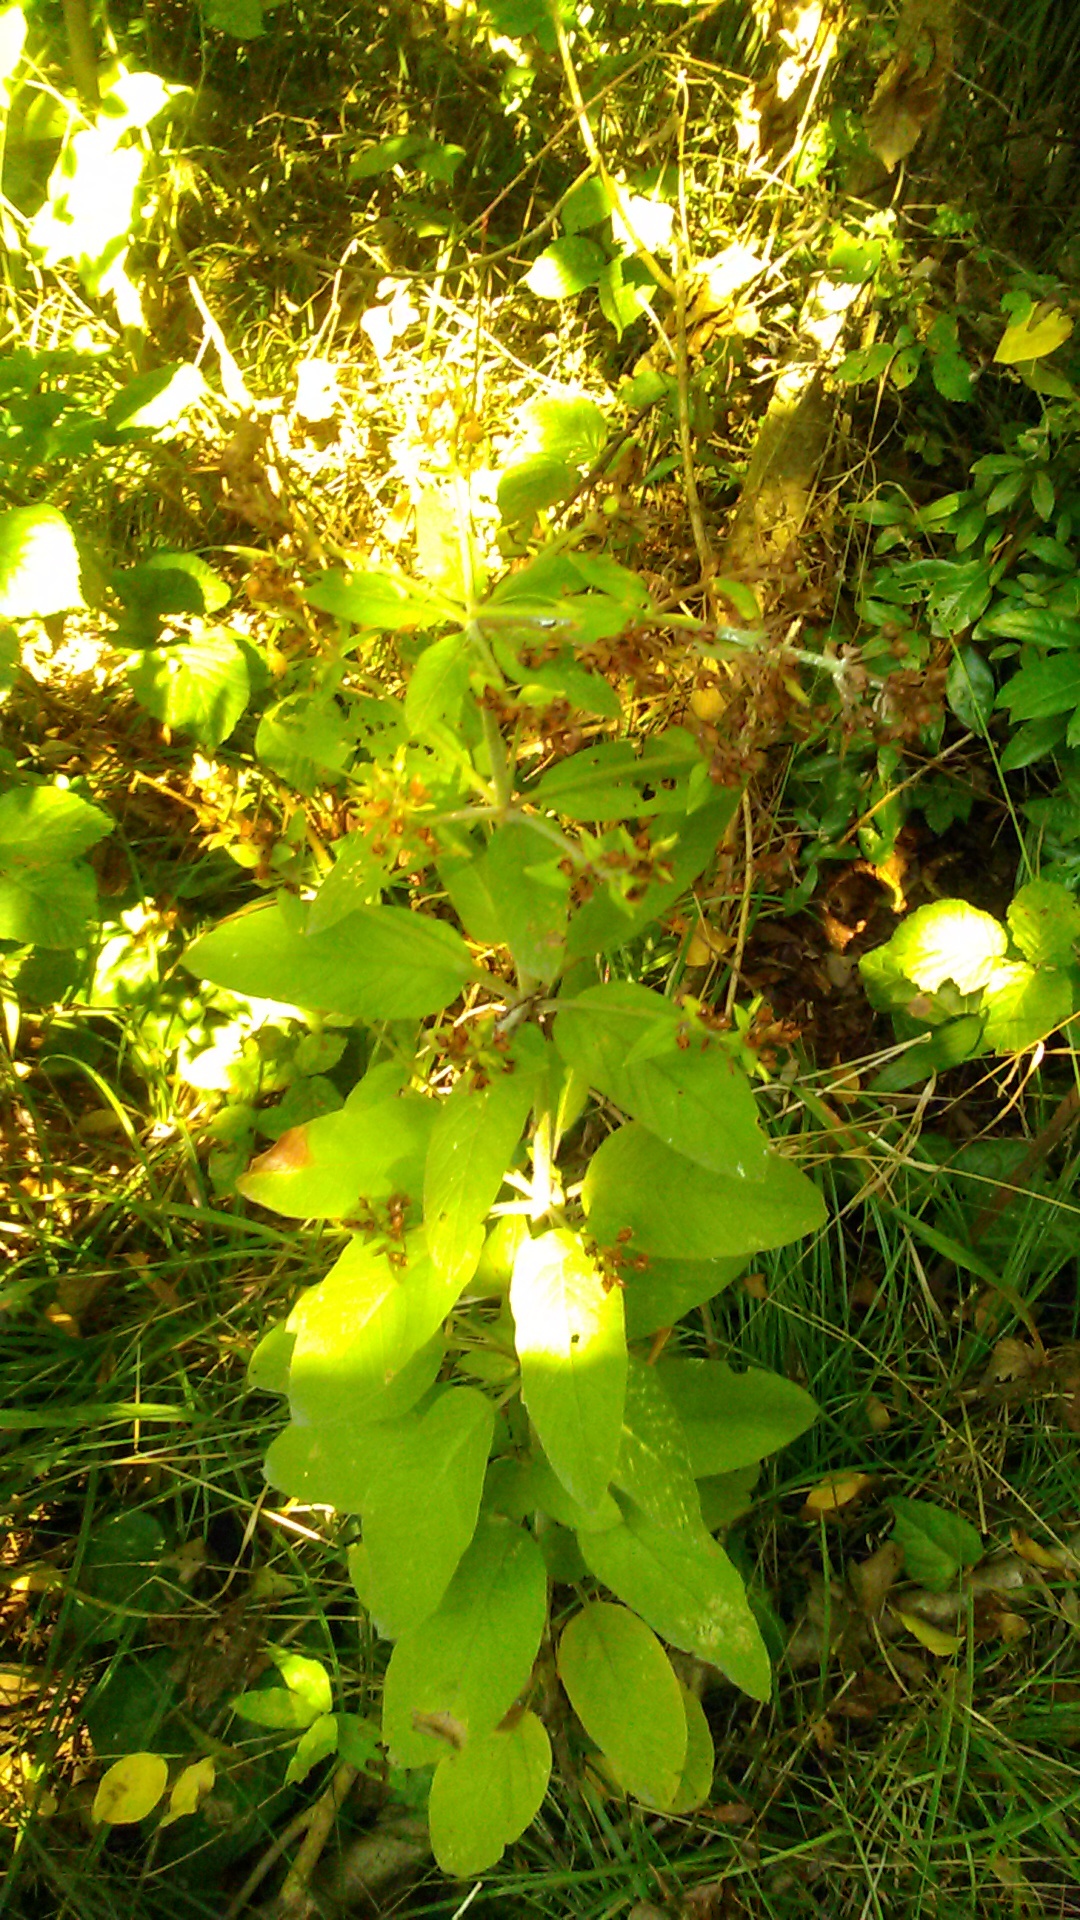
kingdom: Plantae
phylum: Tracheophyta
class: Magnoliopsida
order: Ericales
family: Primulaceae
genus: Lysimachia
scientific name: Lysimachia punctata
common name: Dotted loosestrife
